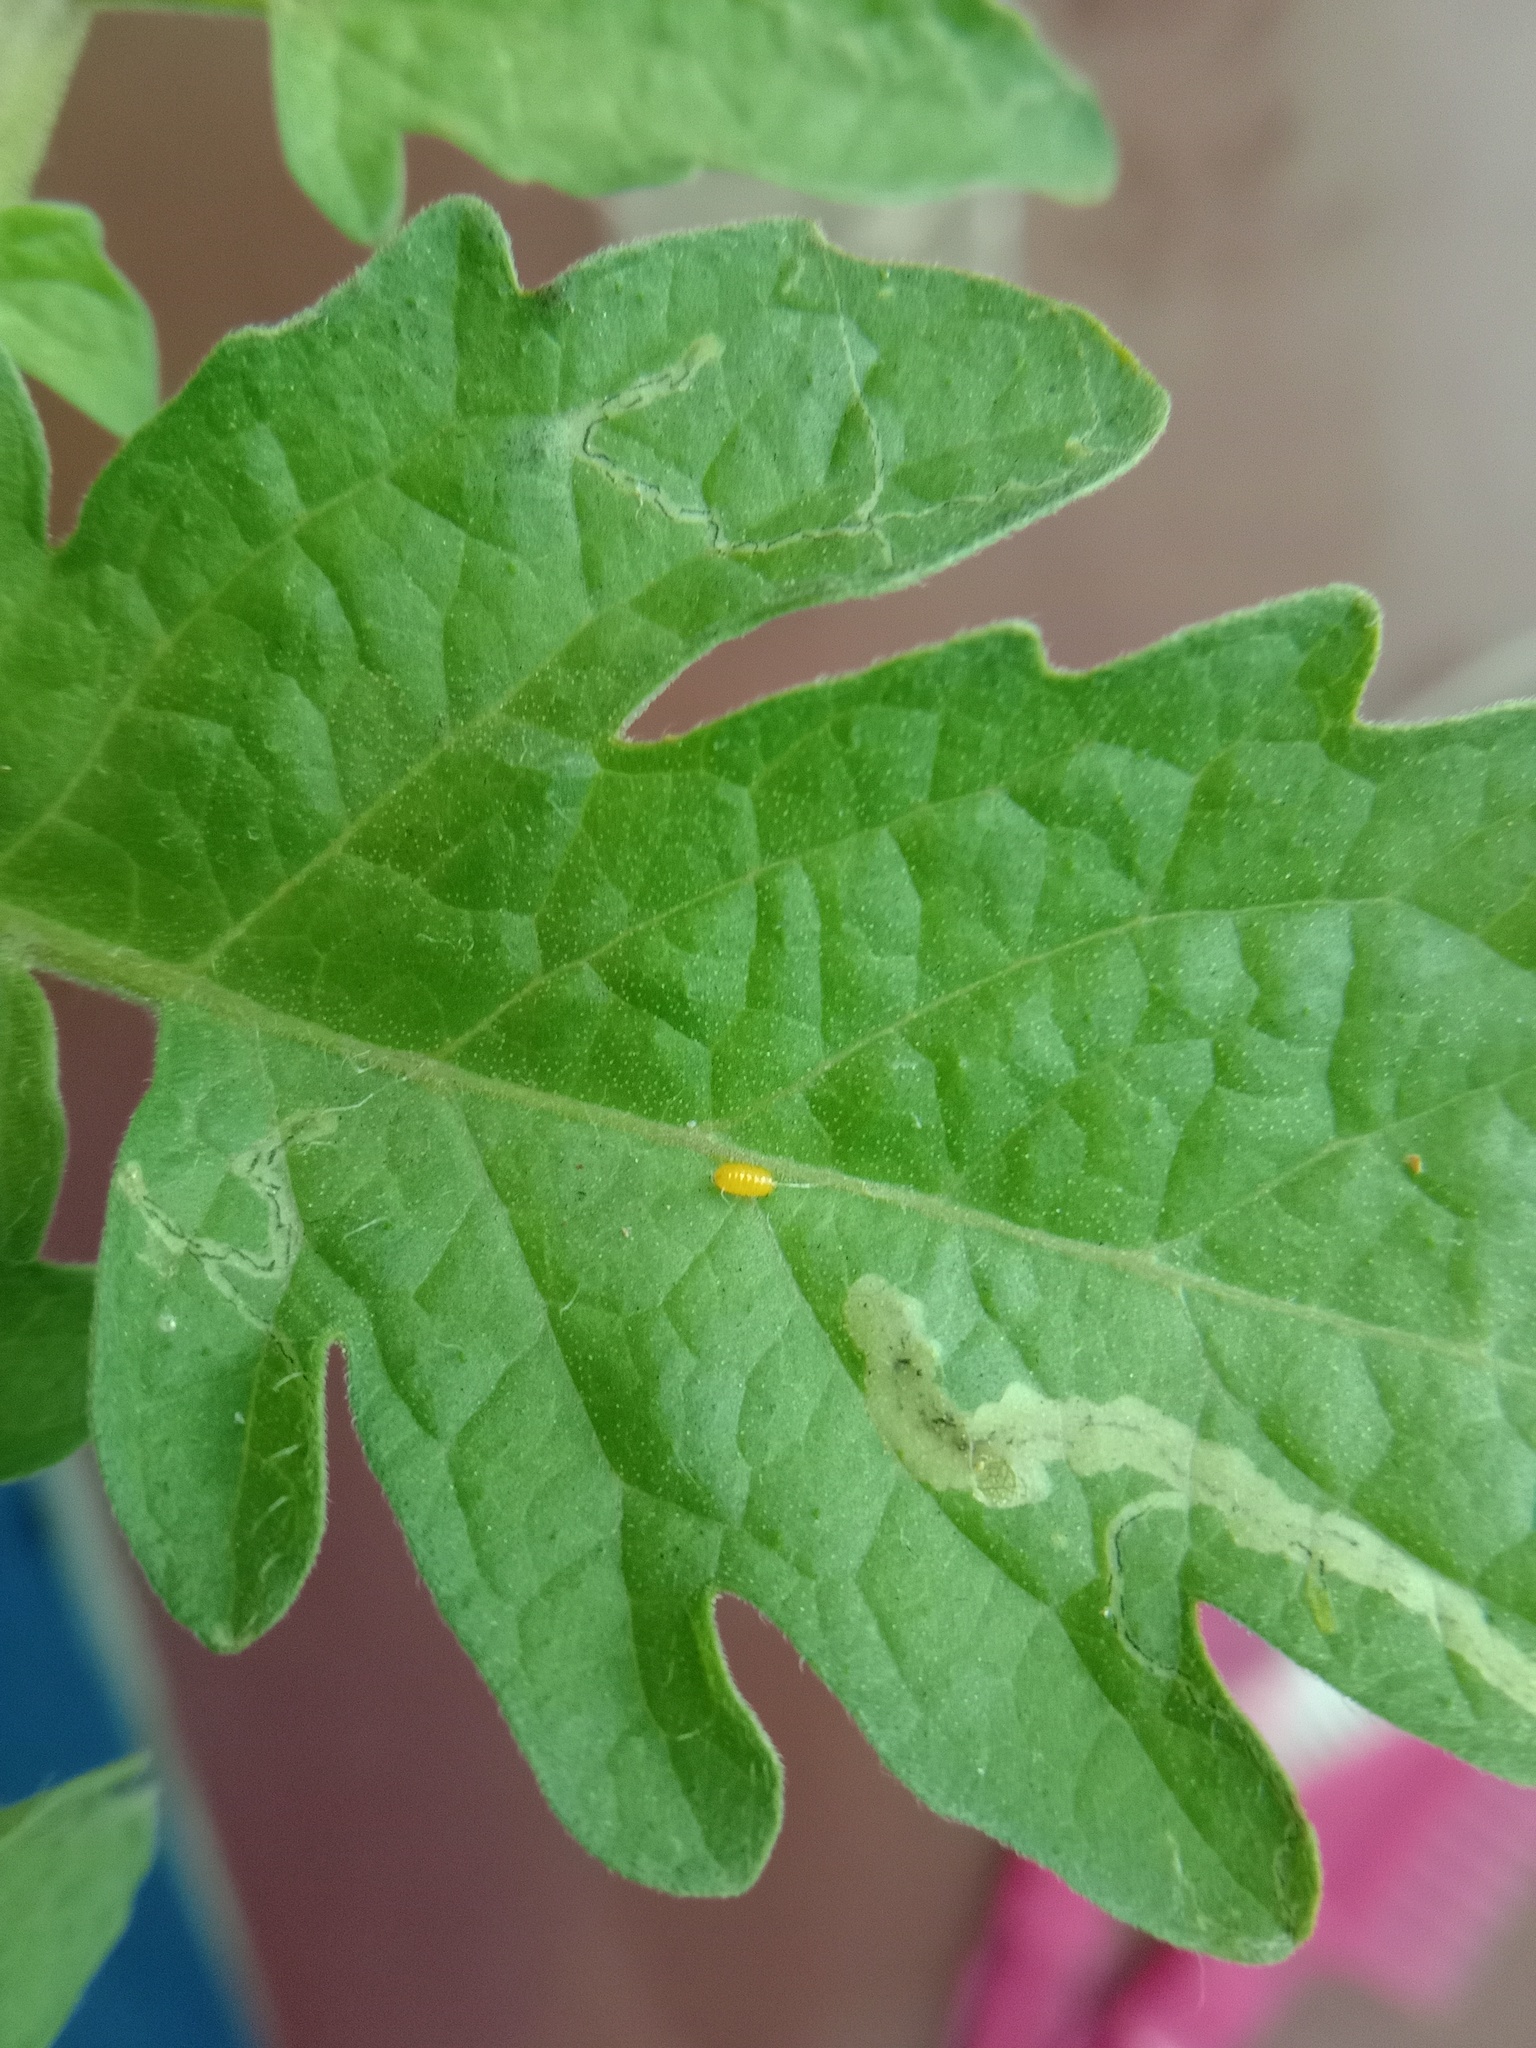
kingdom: Animalia
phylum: Arthropoda
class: Insecta
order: Diptera
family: Agromyzidae
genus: Liriomyza
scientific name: Liriomyza bryoniae
